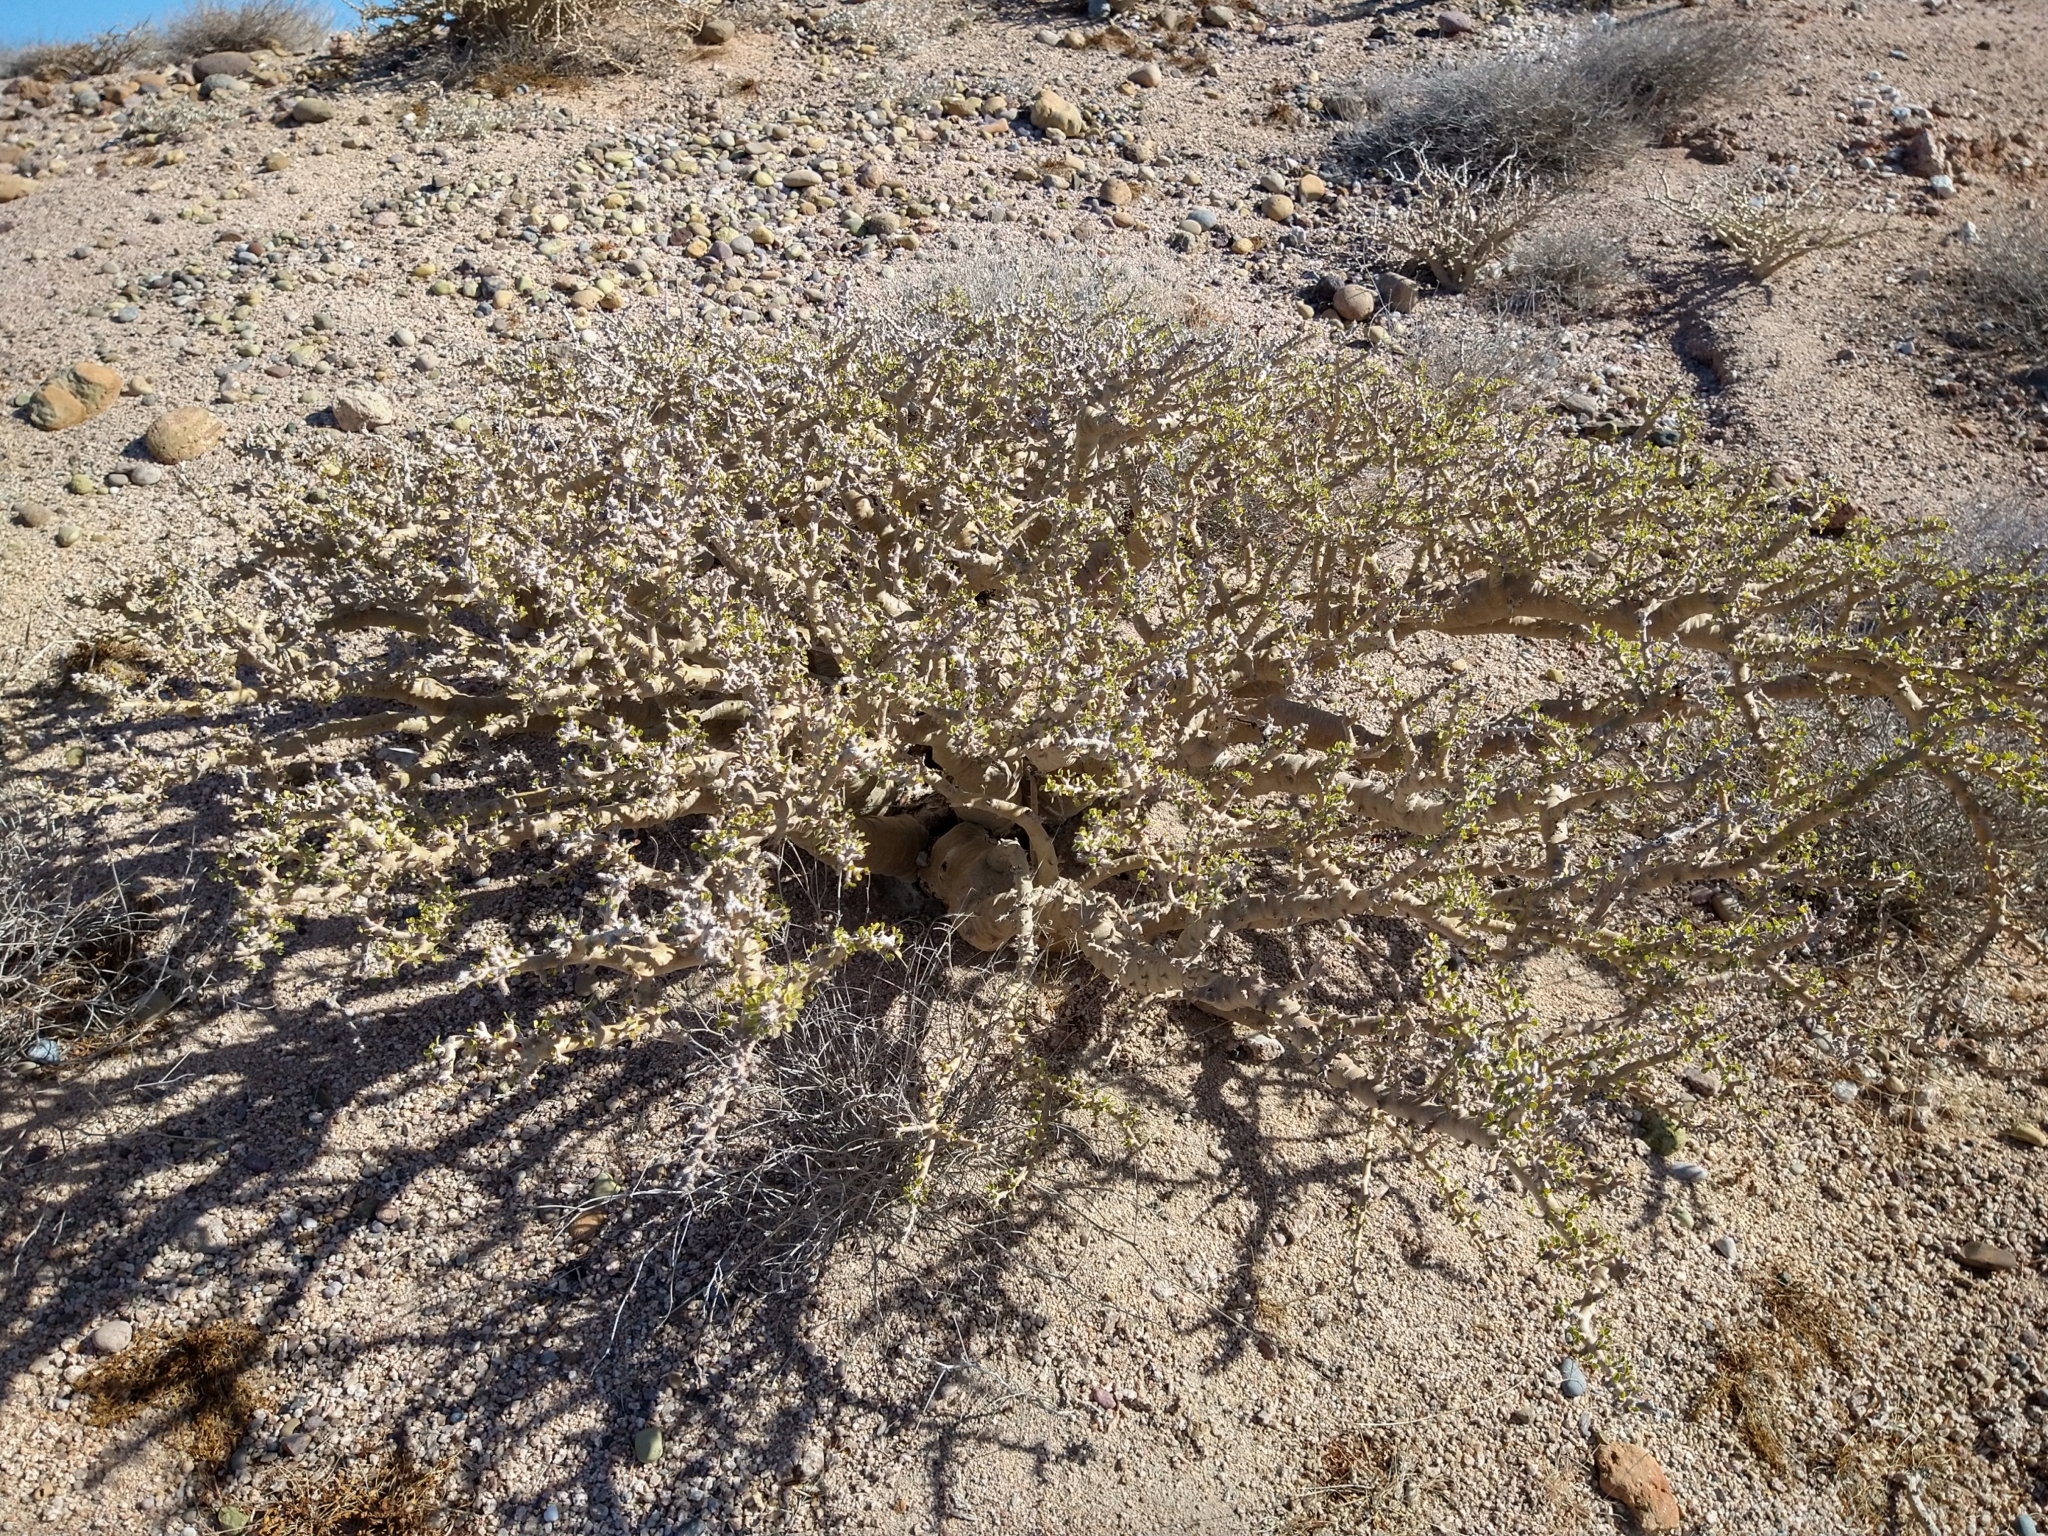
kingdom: Plantae
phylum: Tracheophyta
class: Magnoliopsida
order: Malpighiales
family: Euphorbiaceae
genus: Jatropha
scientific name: Jatropha cuneata
